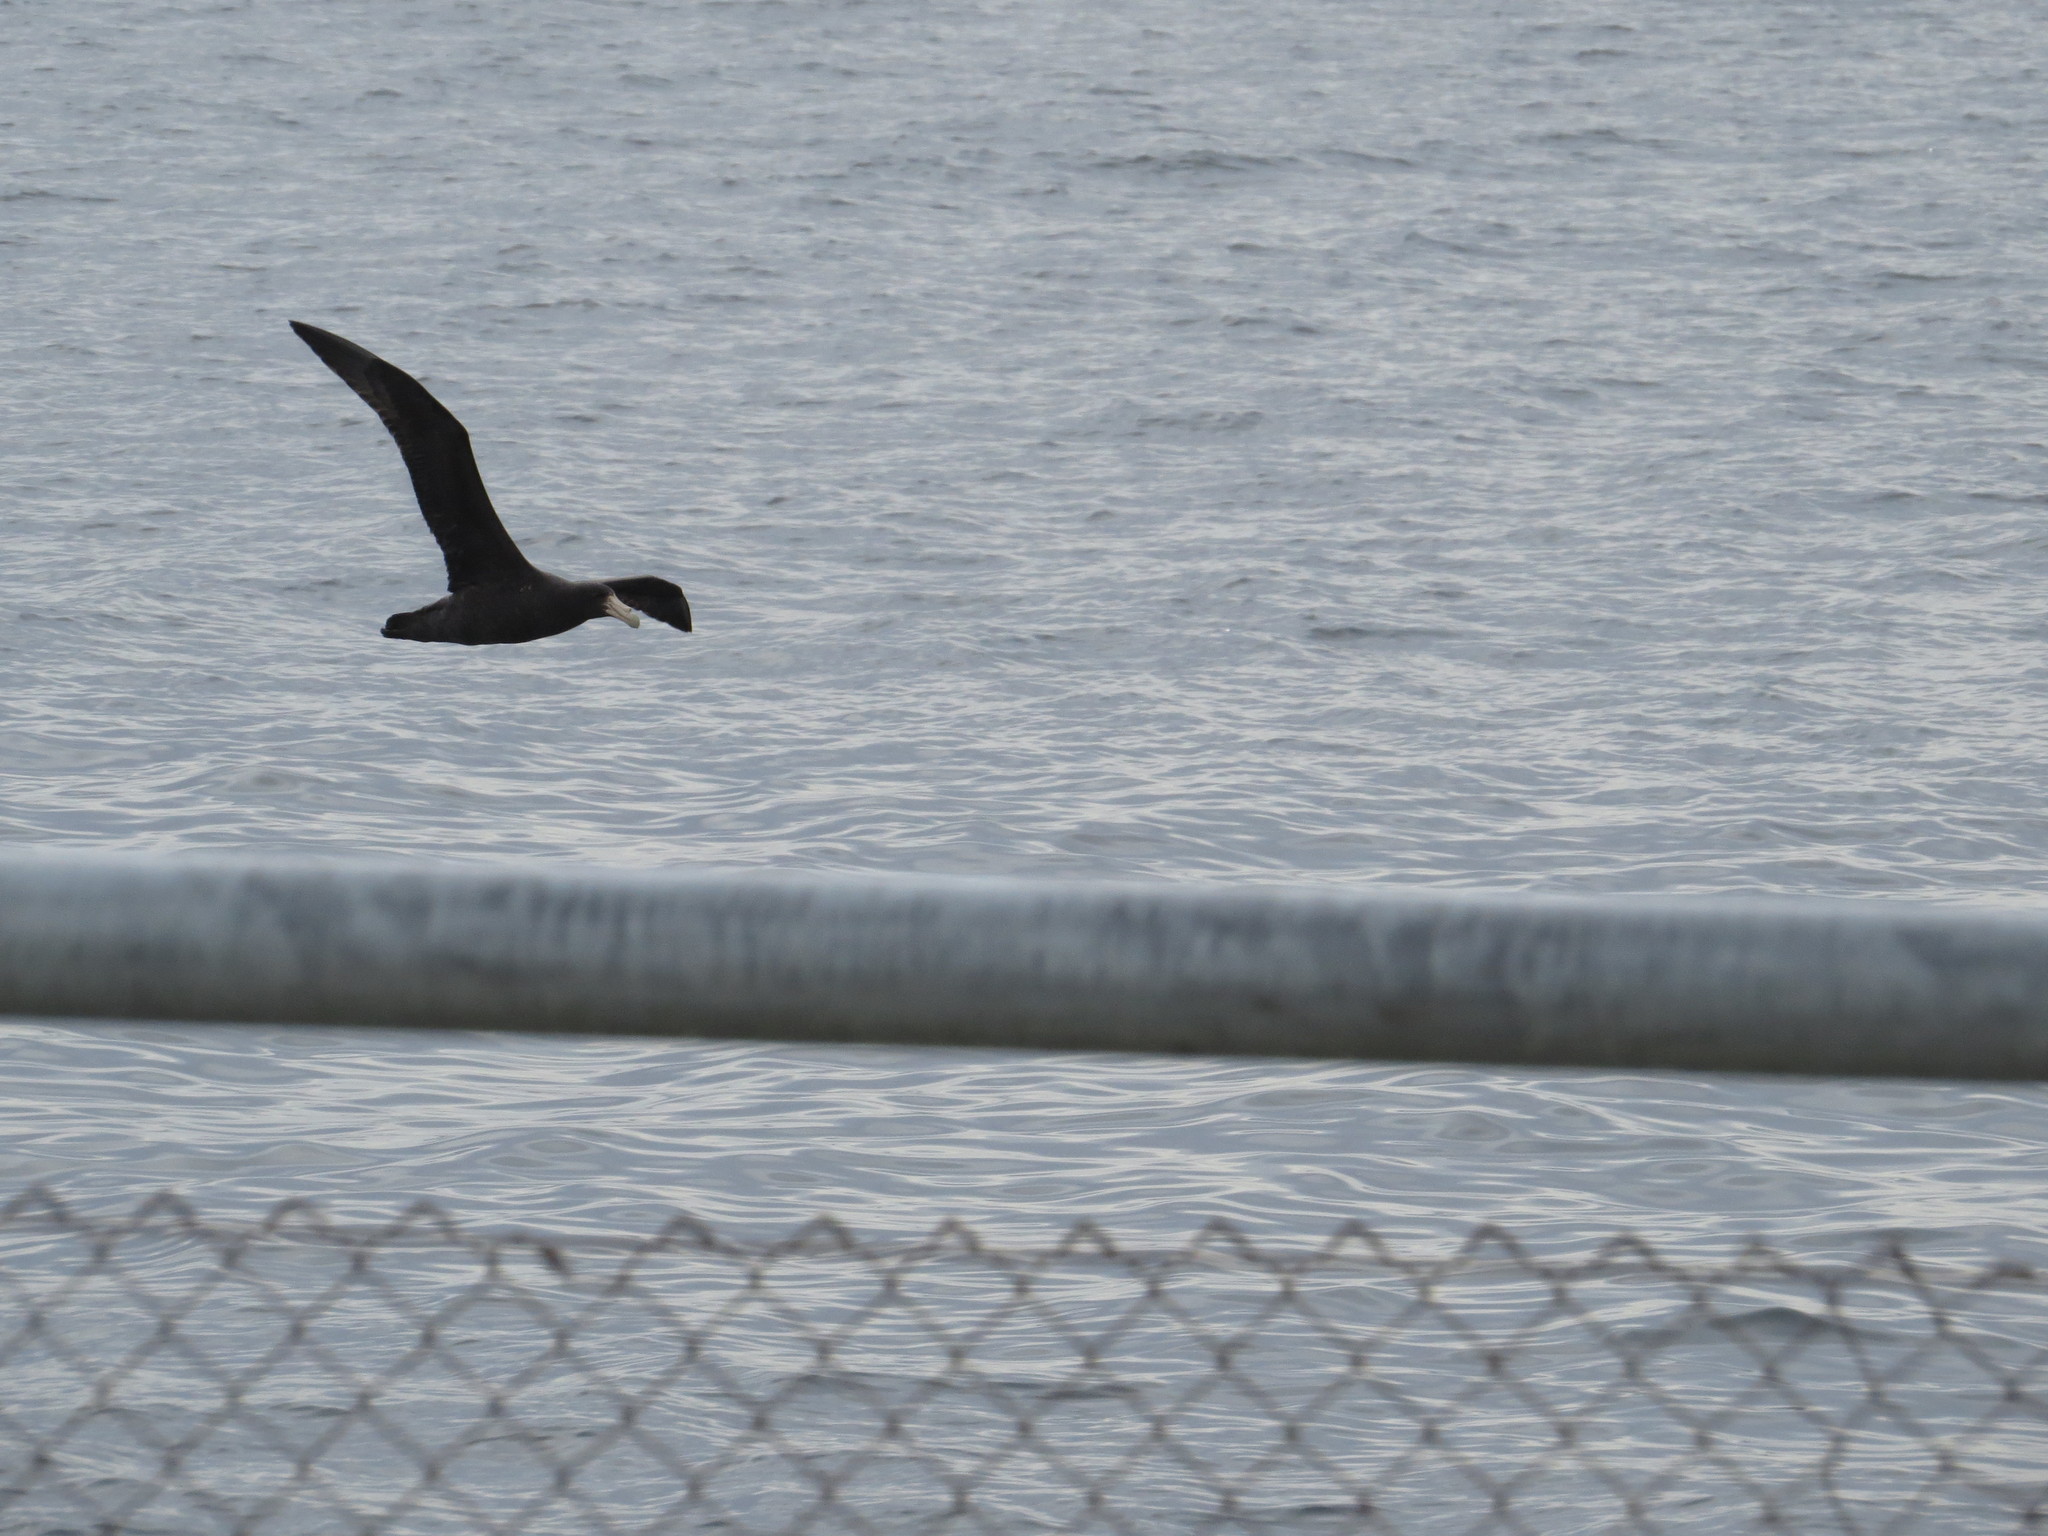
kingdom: Animalia
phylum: Chordata
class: Aves
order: Procellariiformes
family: Procellariidae
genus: Macronectes
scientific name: Macronectes giganteus
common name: Southern giant petrel
